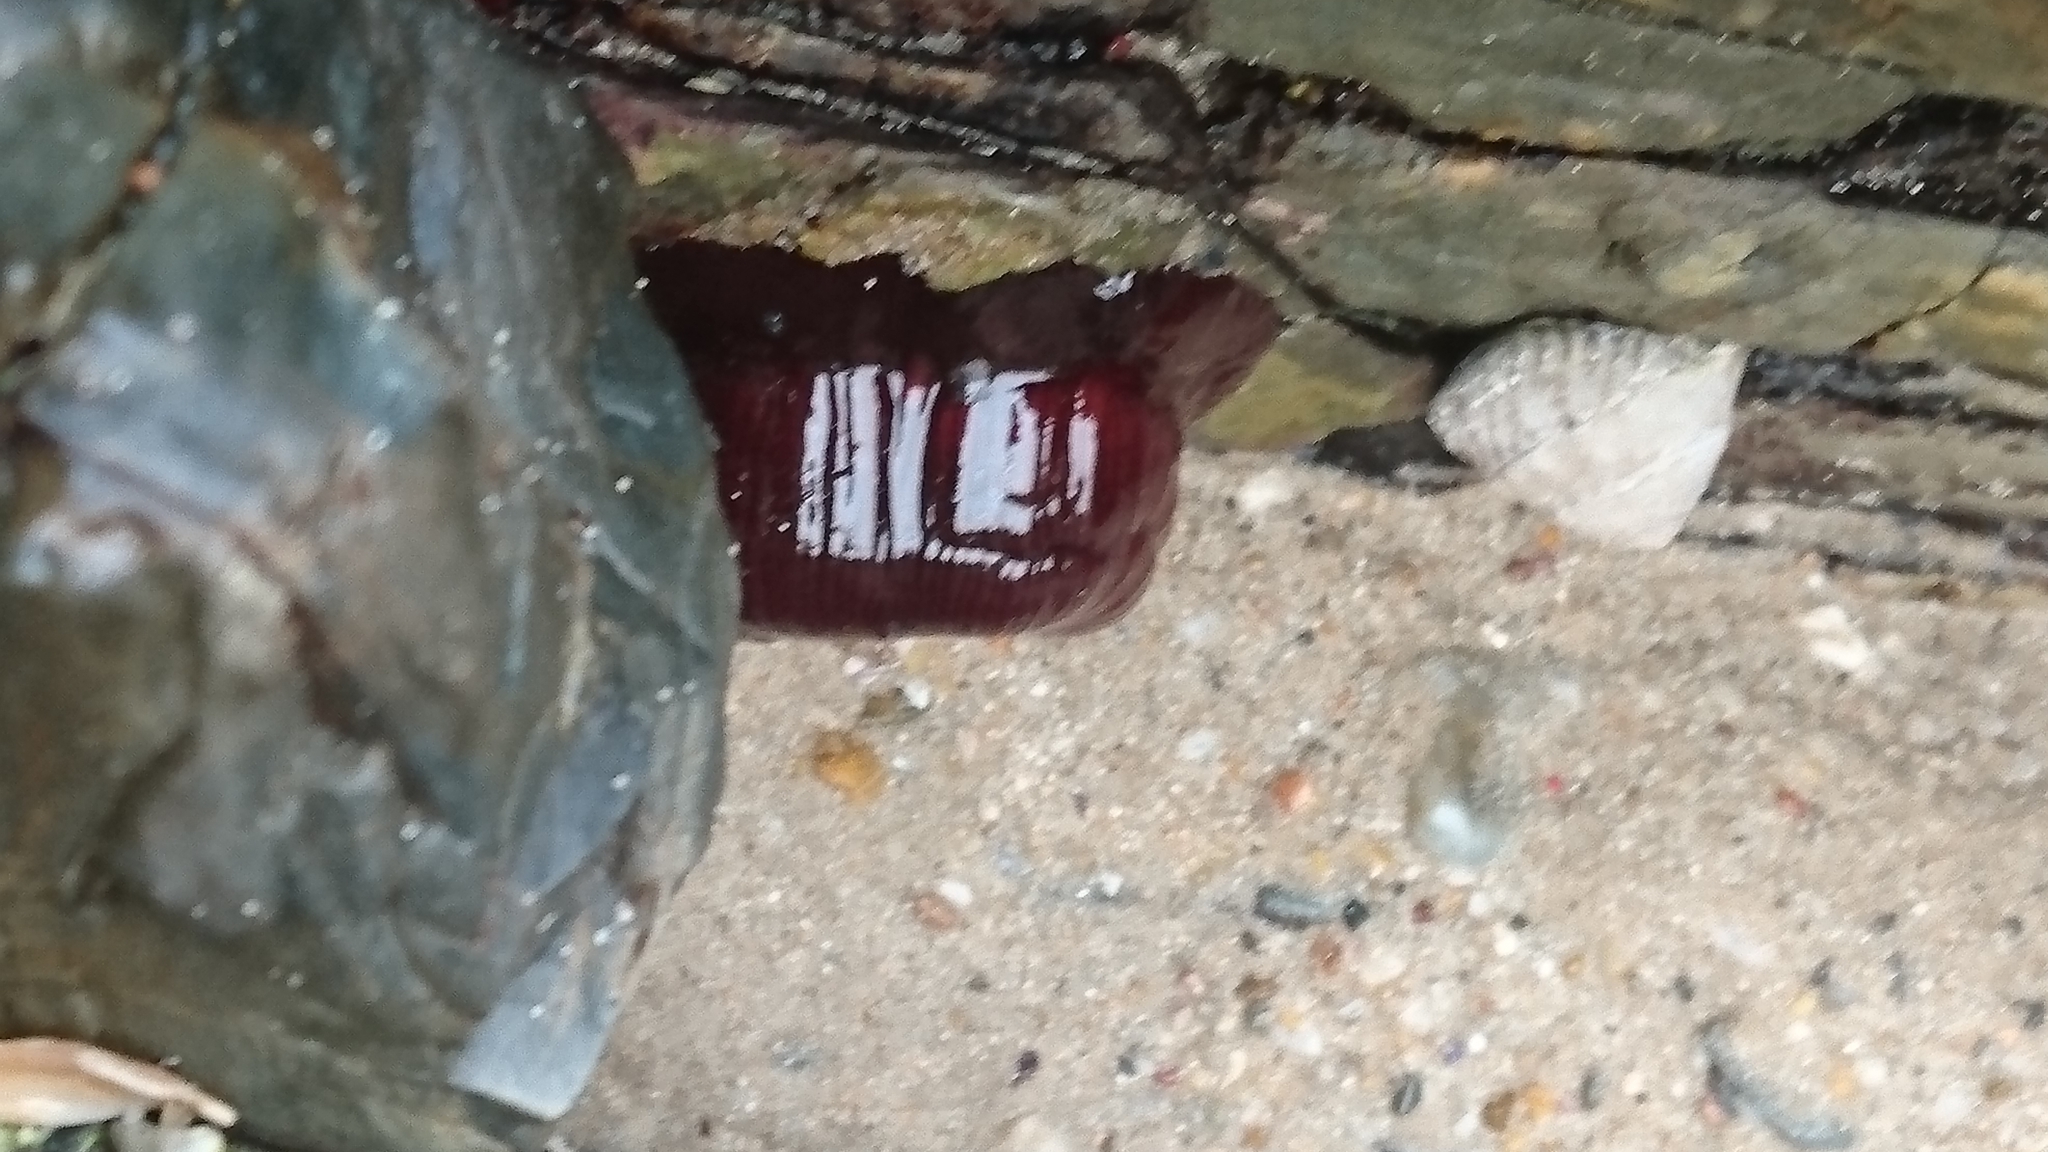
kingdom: Animalia
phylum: Cnidaria
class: Anthozoa
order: Actiniaria
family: Actiniidae
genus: Actinia
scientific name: Actinia tenebrosa
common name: Waratah anemone
